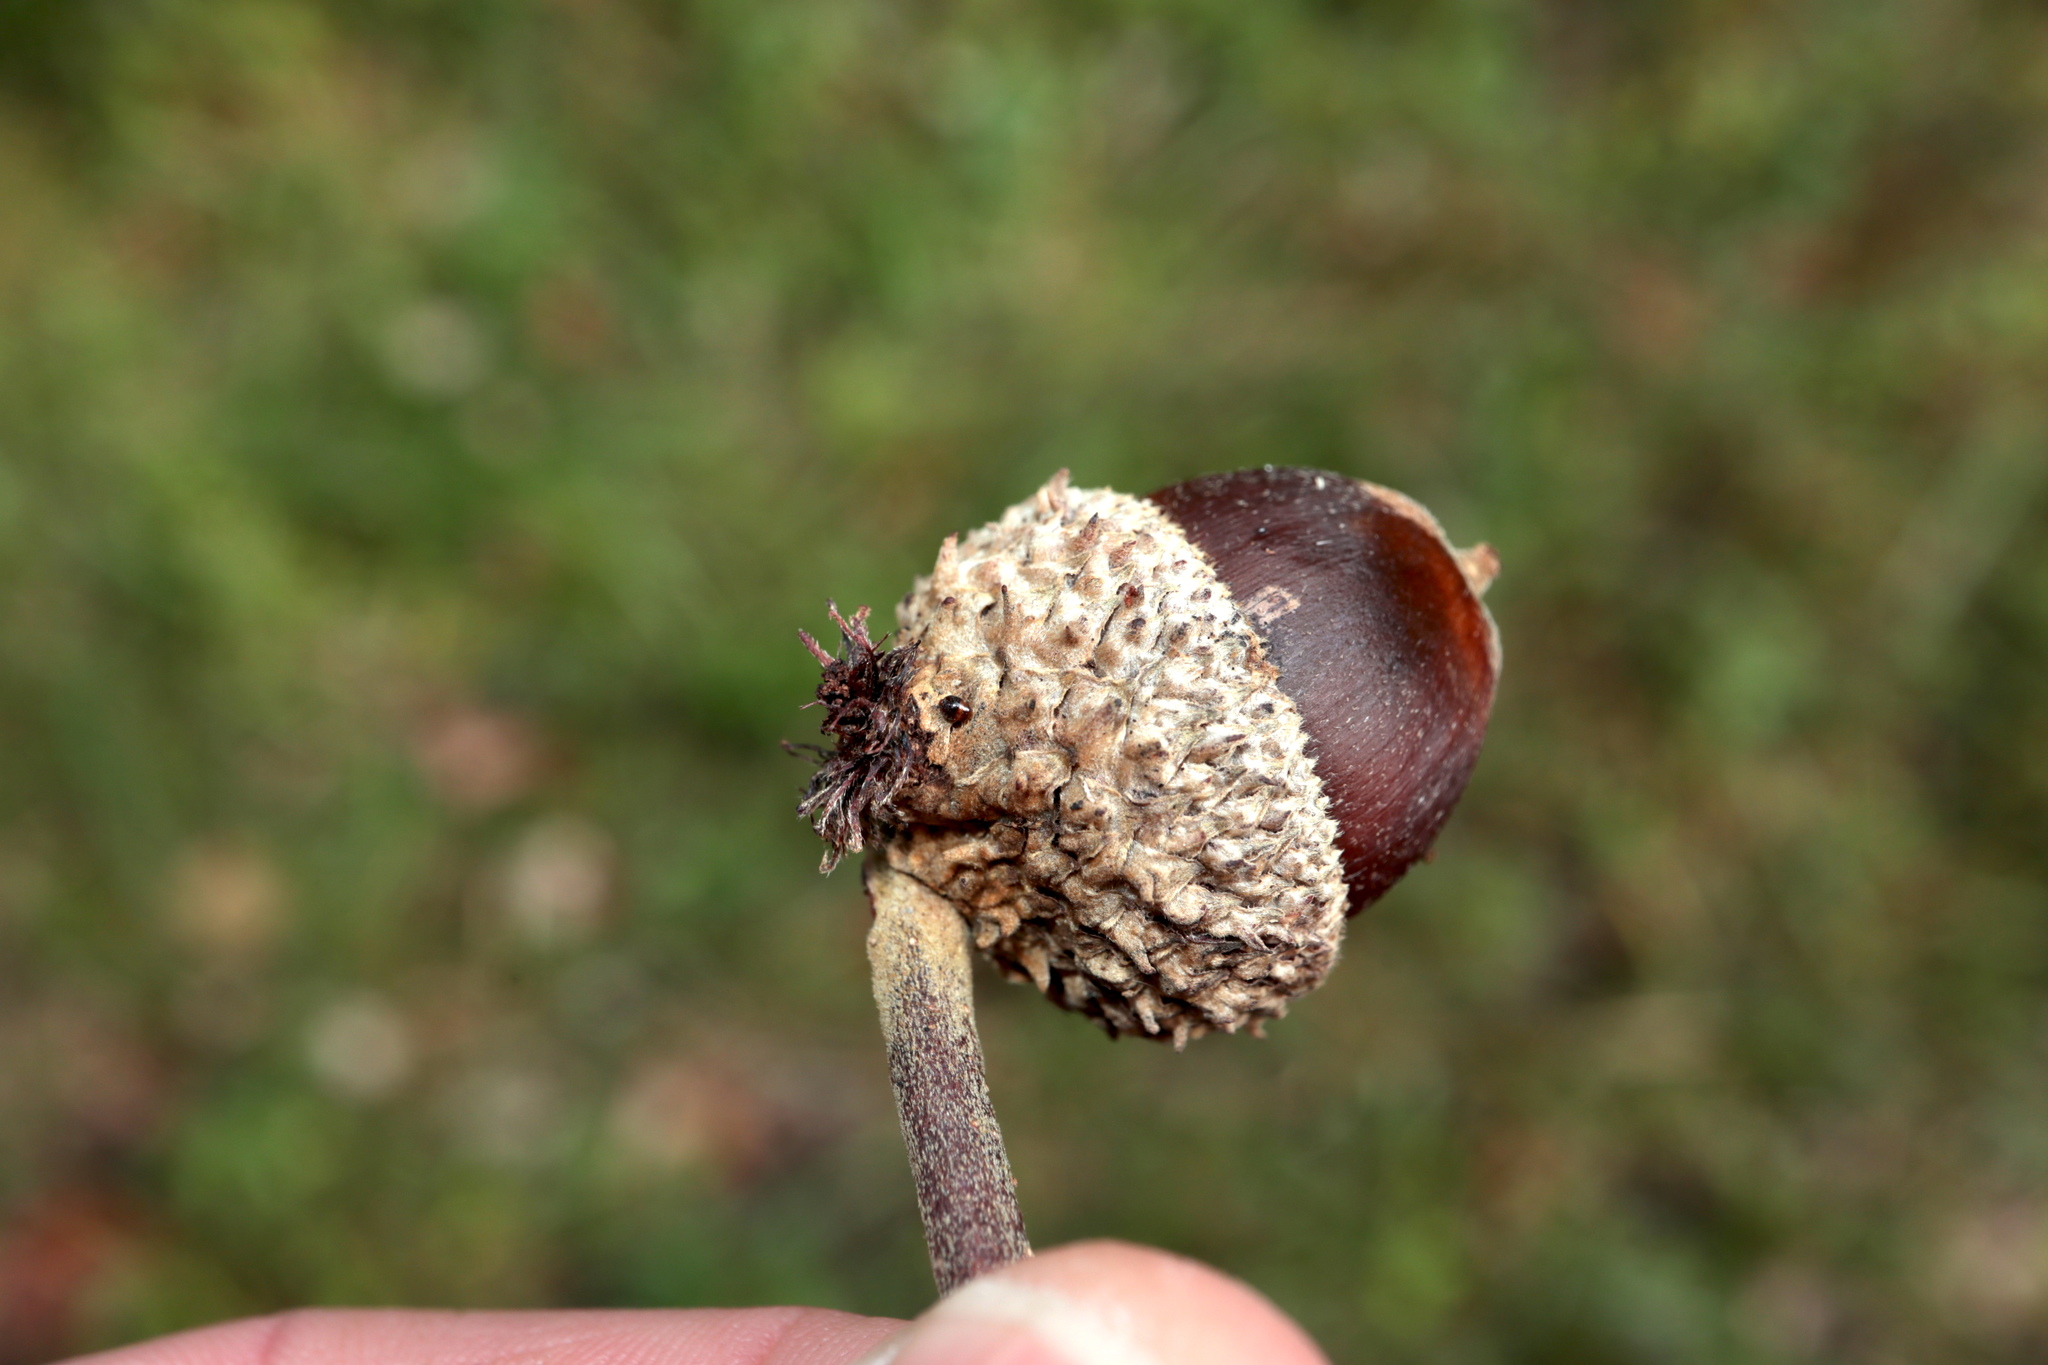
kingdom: Animalia
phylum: Arthropoda
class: Insecta
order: Hymenoptera
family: Cynipidae
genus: Andricus
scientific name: Andricus
